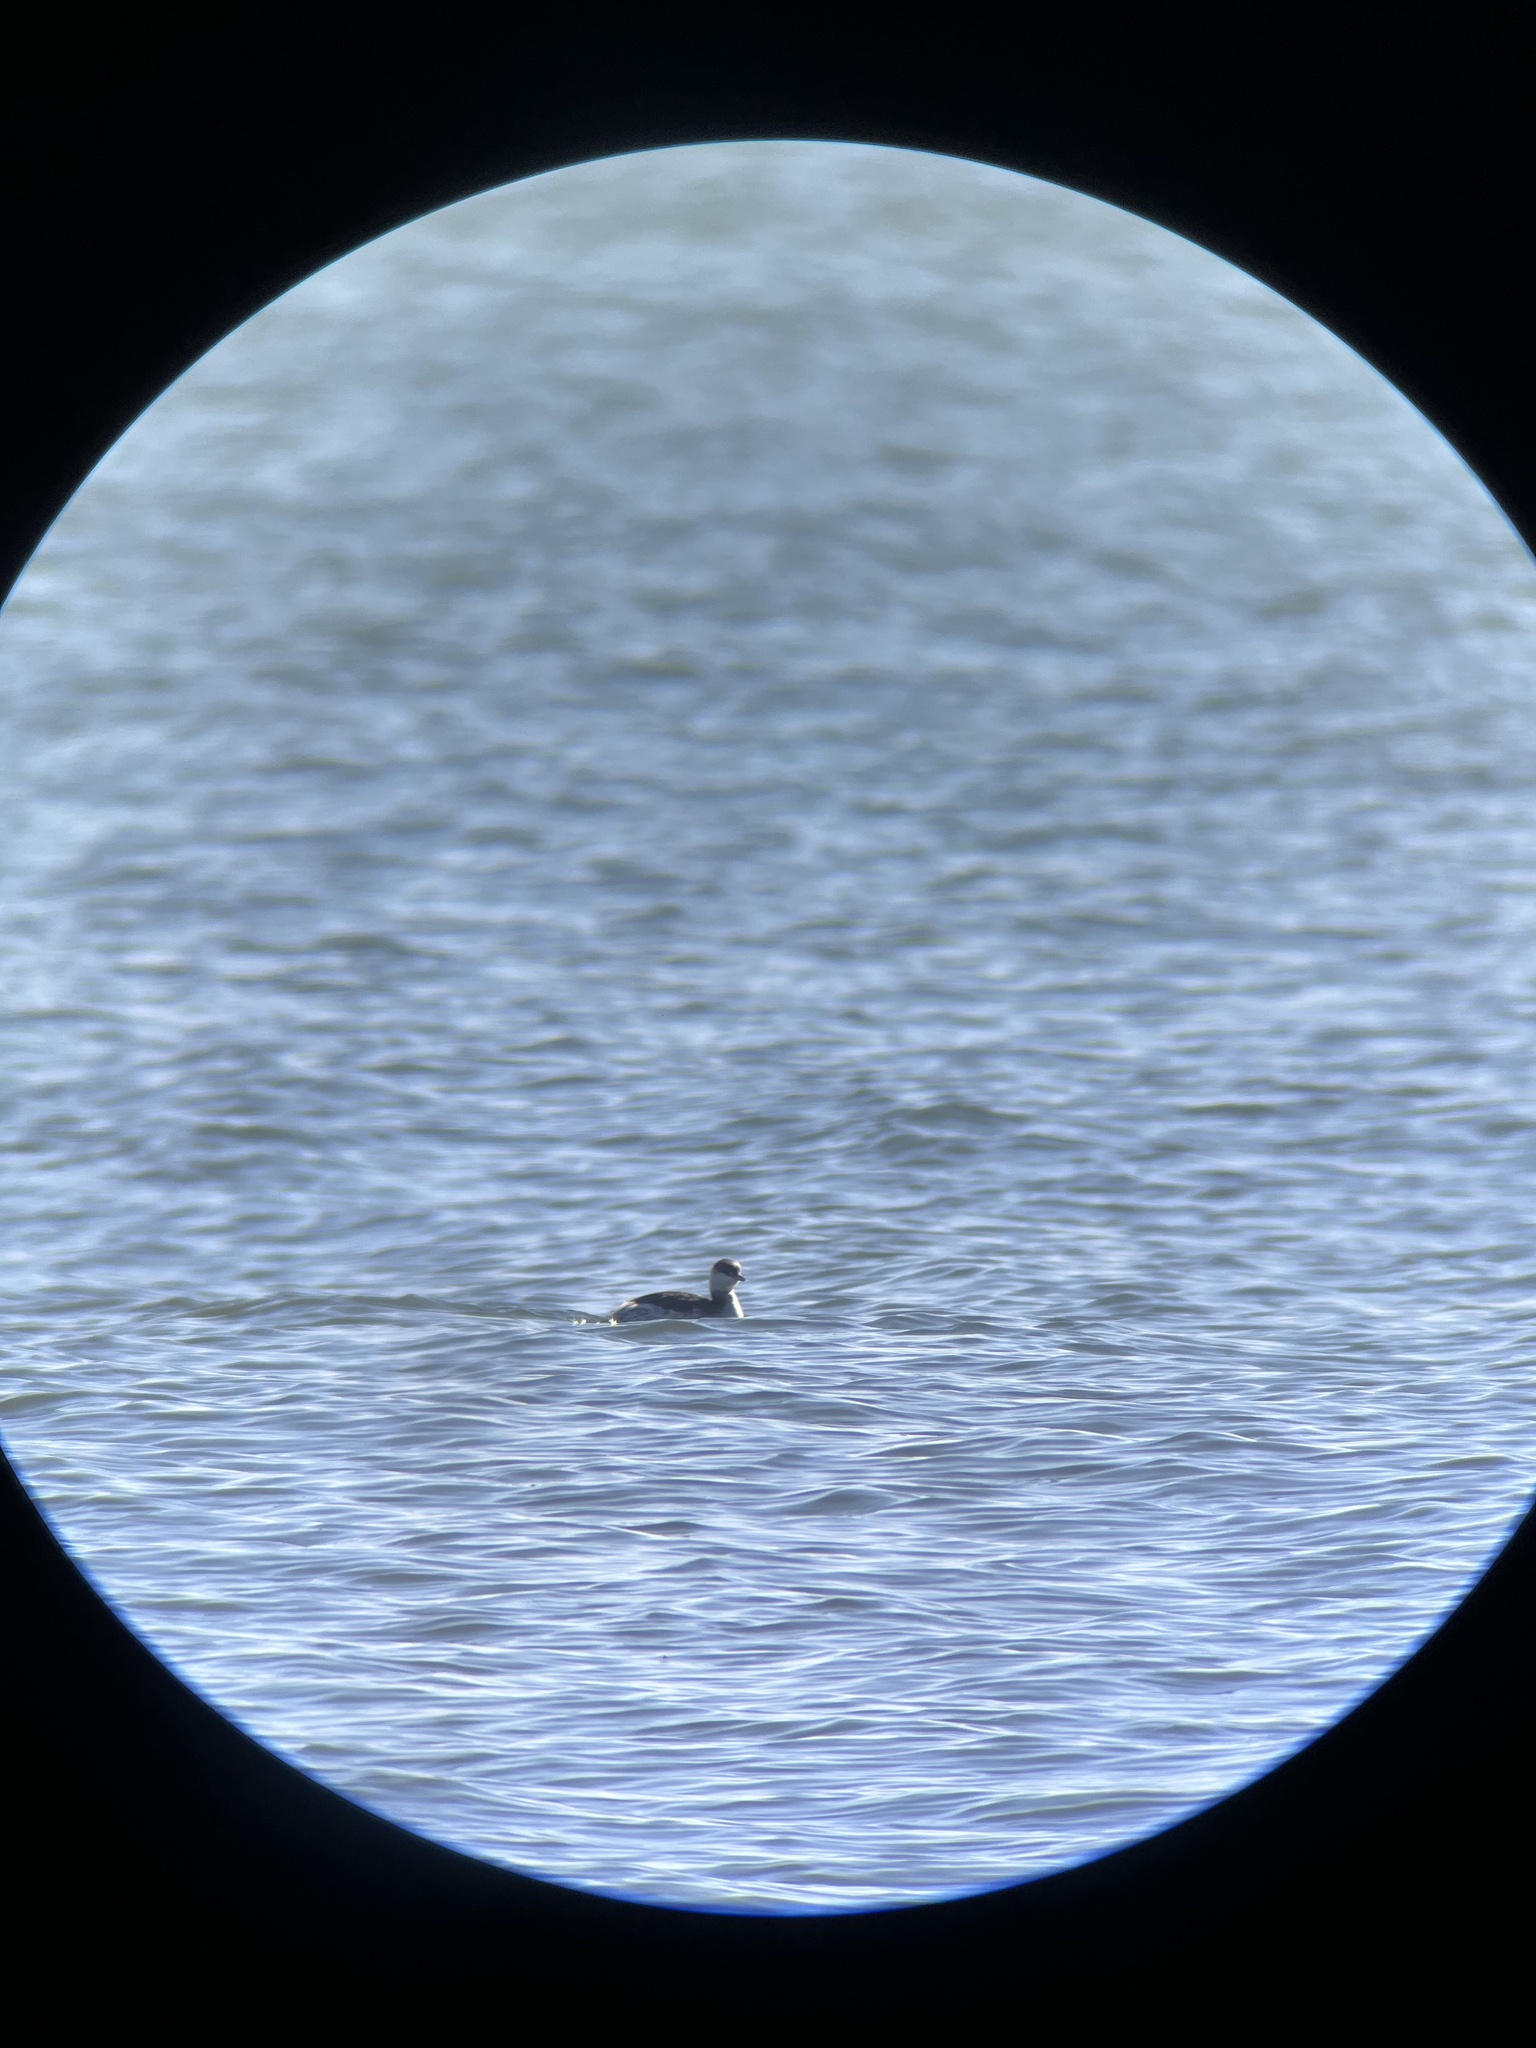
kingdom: Animalia
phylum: Chordata
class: Aves
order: Podicipediformes
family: Podicipedidae
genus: Podiceps
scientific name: Podiceps auritus
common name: Horned grebe
